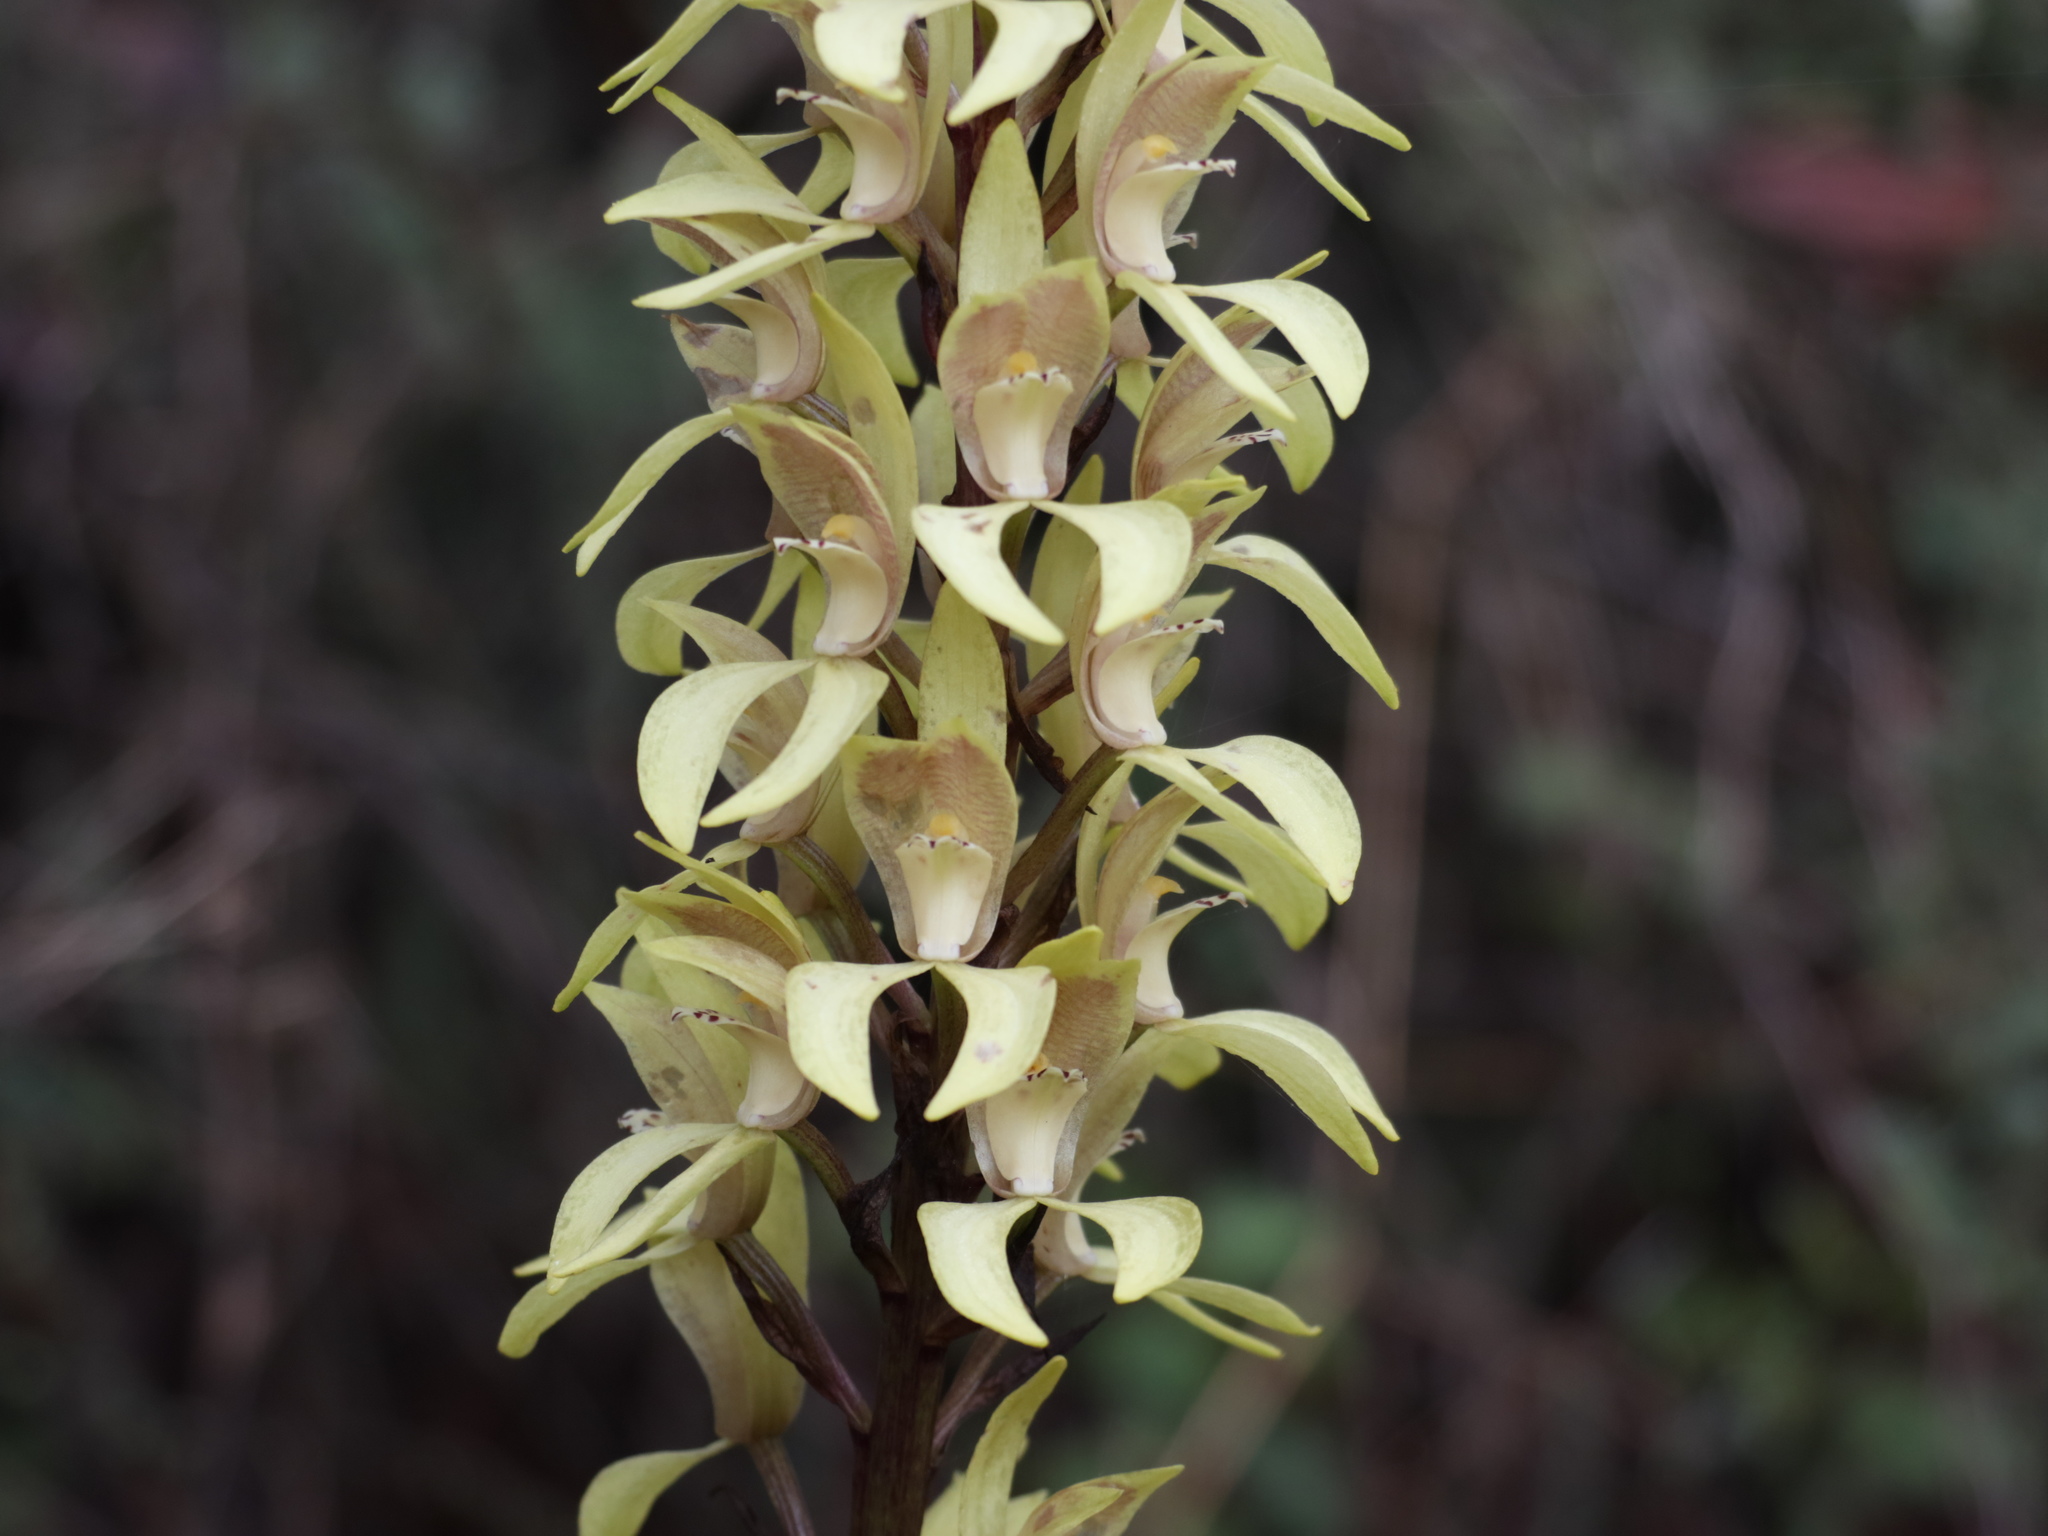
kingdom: Plantae
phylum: Tracheophyta
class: Liliopsida
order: Asparagales
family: Orchidaceae
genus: Govenia
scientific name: Govenia superba
